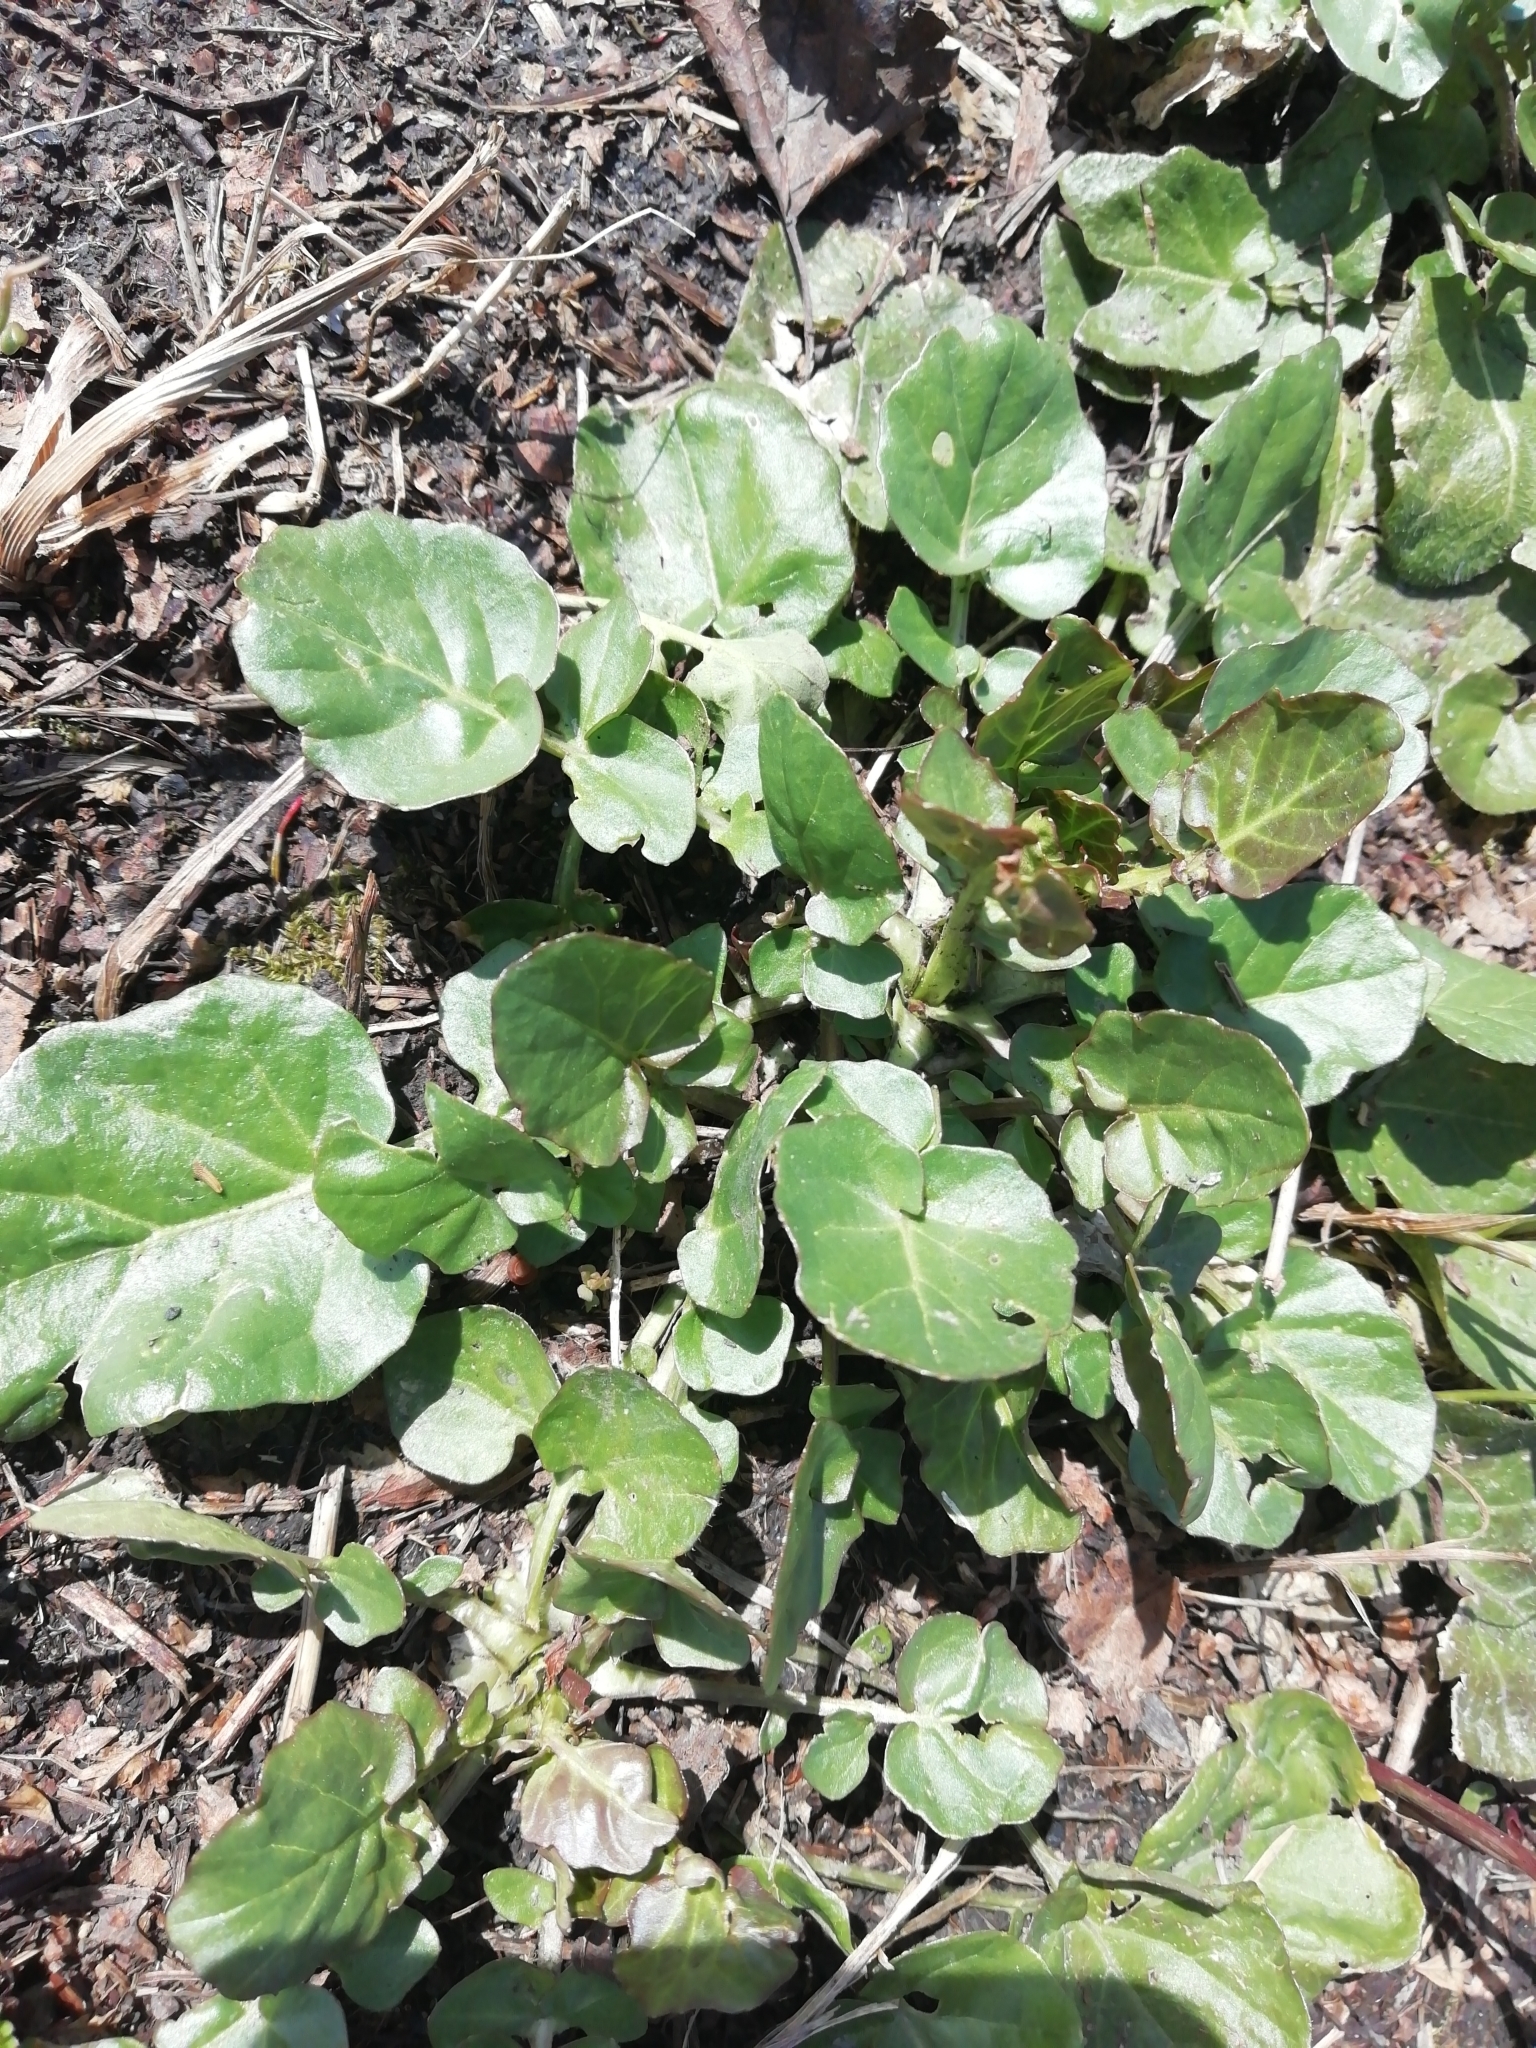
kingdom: Plantae
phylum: Tracheophyta
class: Magnoliopsida
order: Brassicales
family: Brassicaceae
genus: Barbarea
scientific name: Barbarea vulgaris
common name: Cressy-greens
